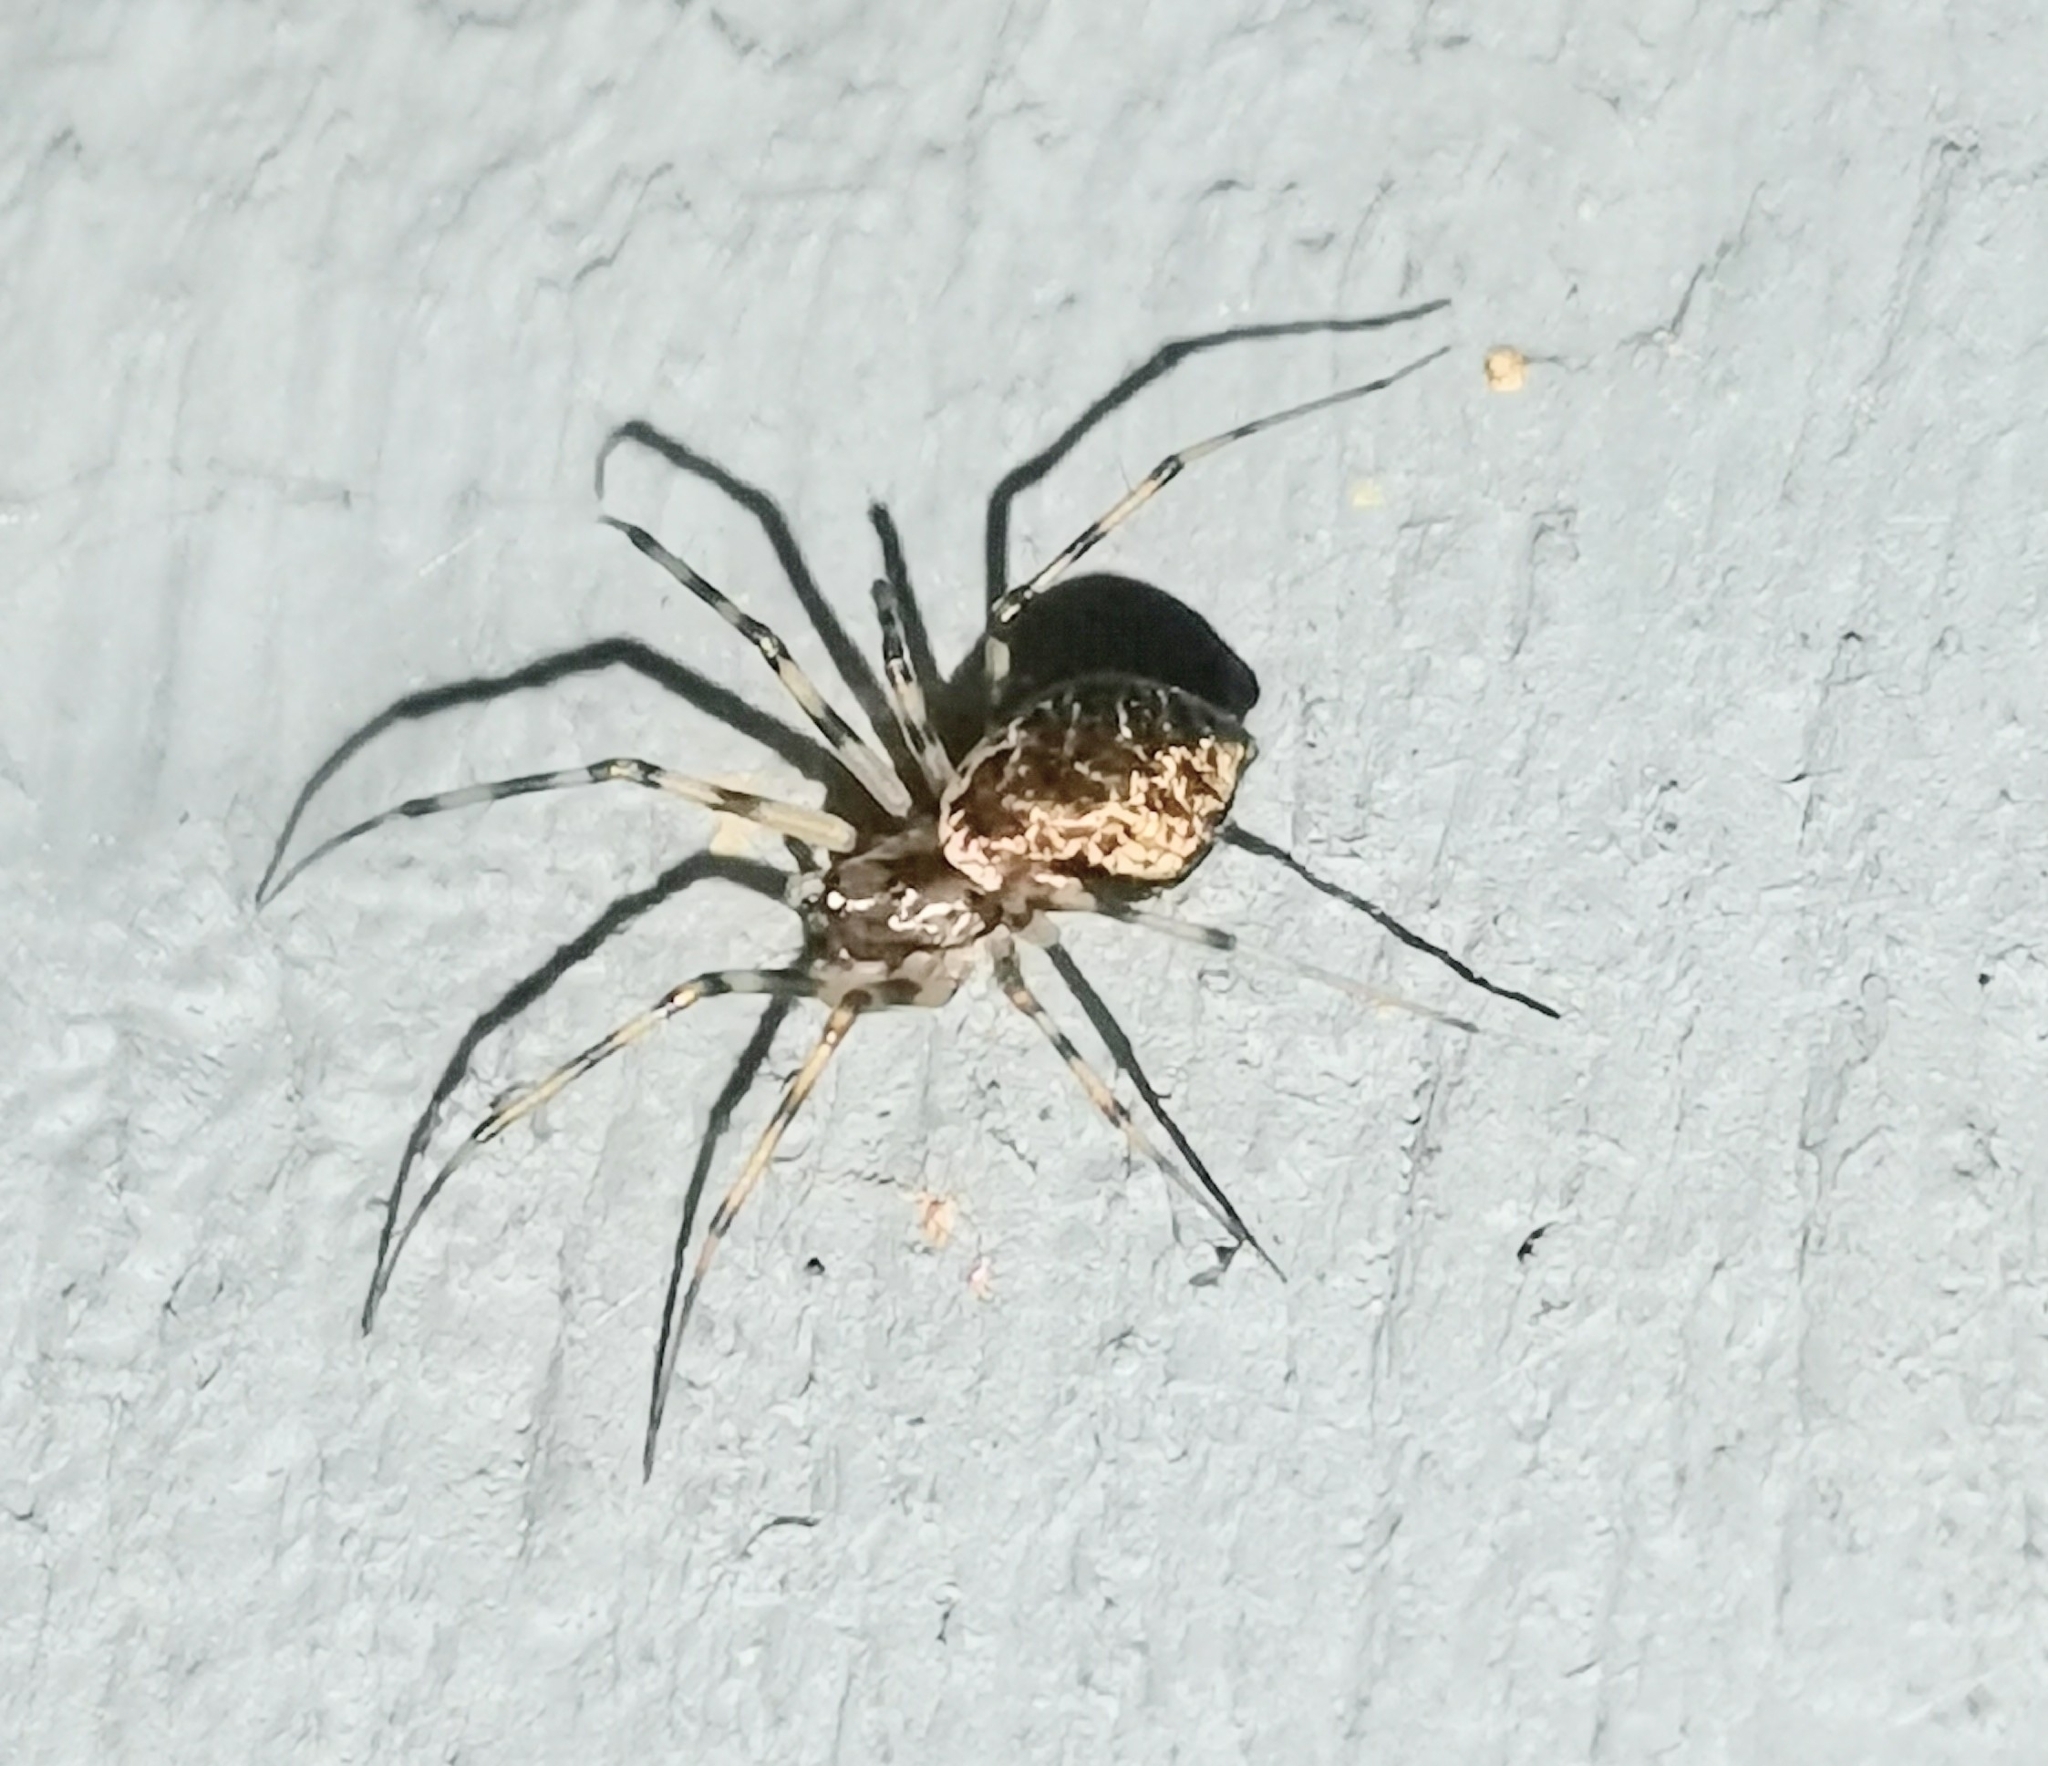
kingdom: Animalia
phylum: Arthropoda
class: Arachnida
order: Araneae
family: Linyphiidae
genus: Drapetisca
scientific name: Drapetisca socialis
